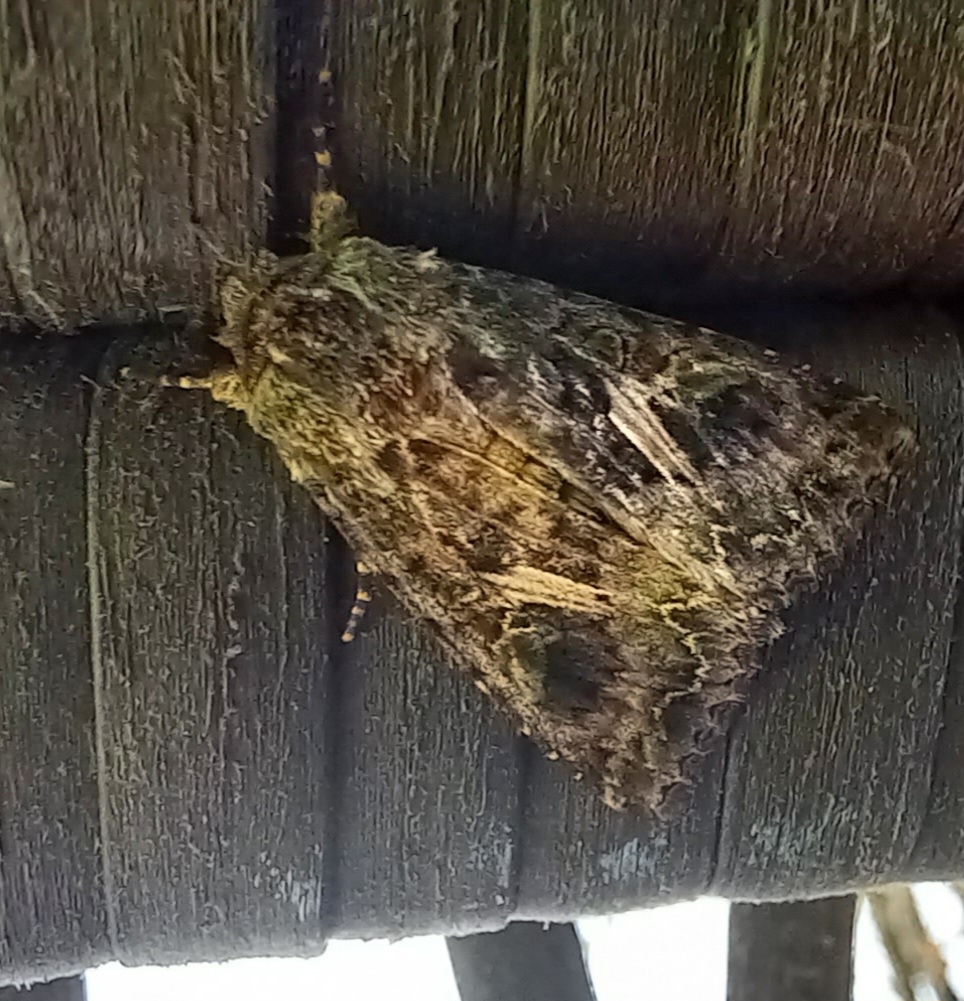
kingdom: Animalia
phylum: Arthropoda
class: Insecta
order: Lepidoptera
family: Noctuidae
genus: Trachea
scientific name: Trachea atriplicis
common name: Orache moth
